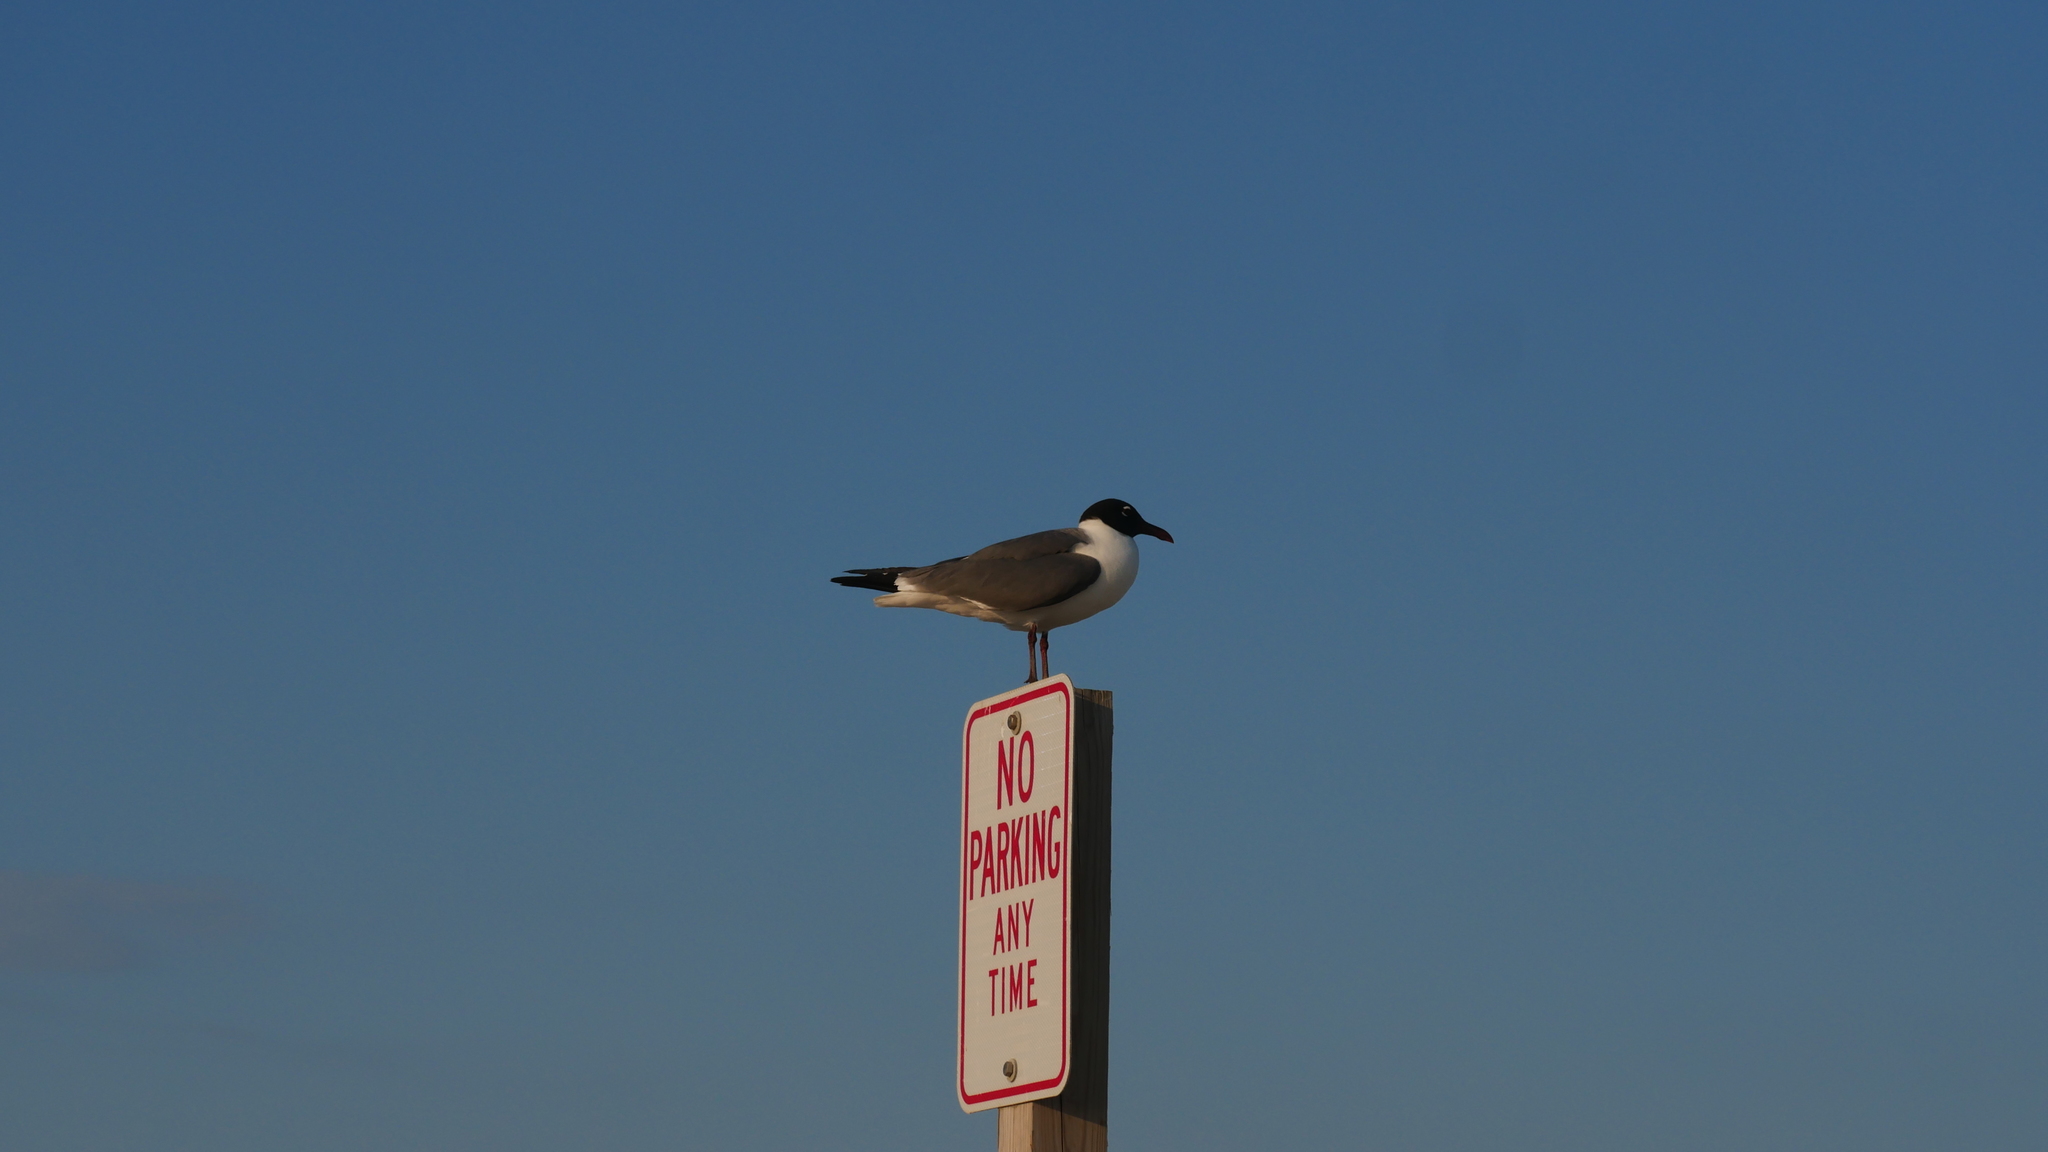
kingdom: Animalia
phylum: Chordata
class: Aves
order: Charadriiformes
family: Laridae
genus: Leucophaeus
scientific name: Leucophaeus atricilla
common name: Laughing gull
